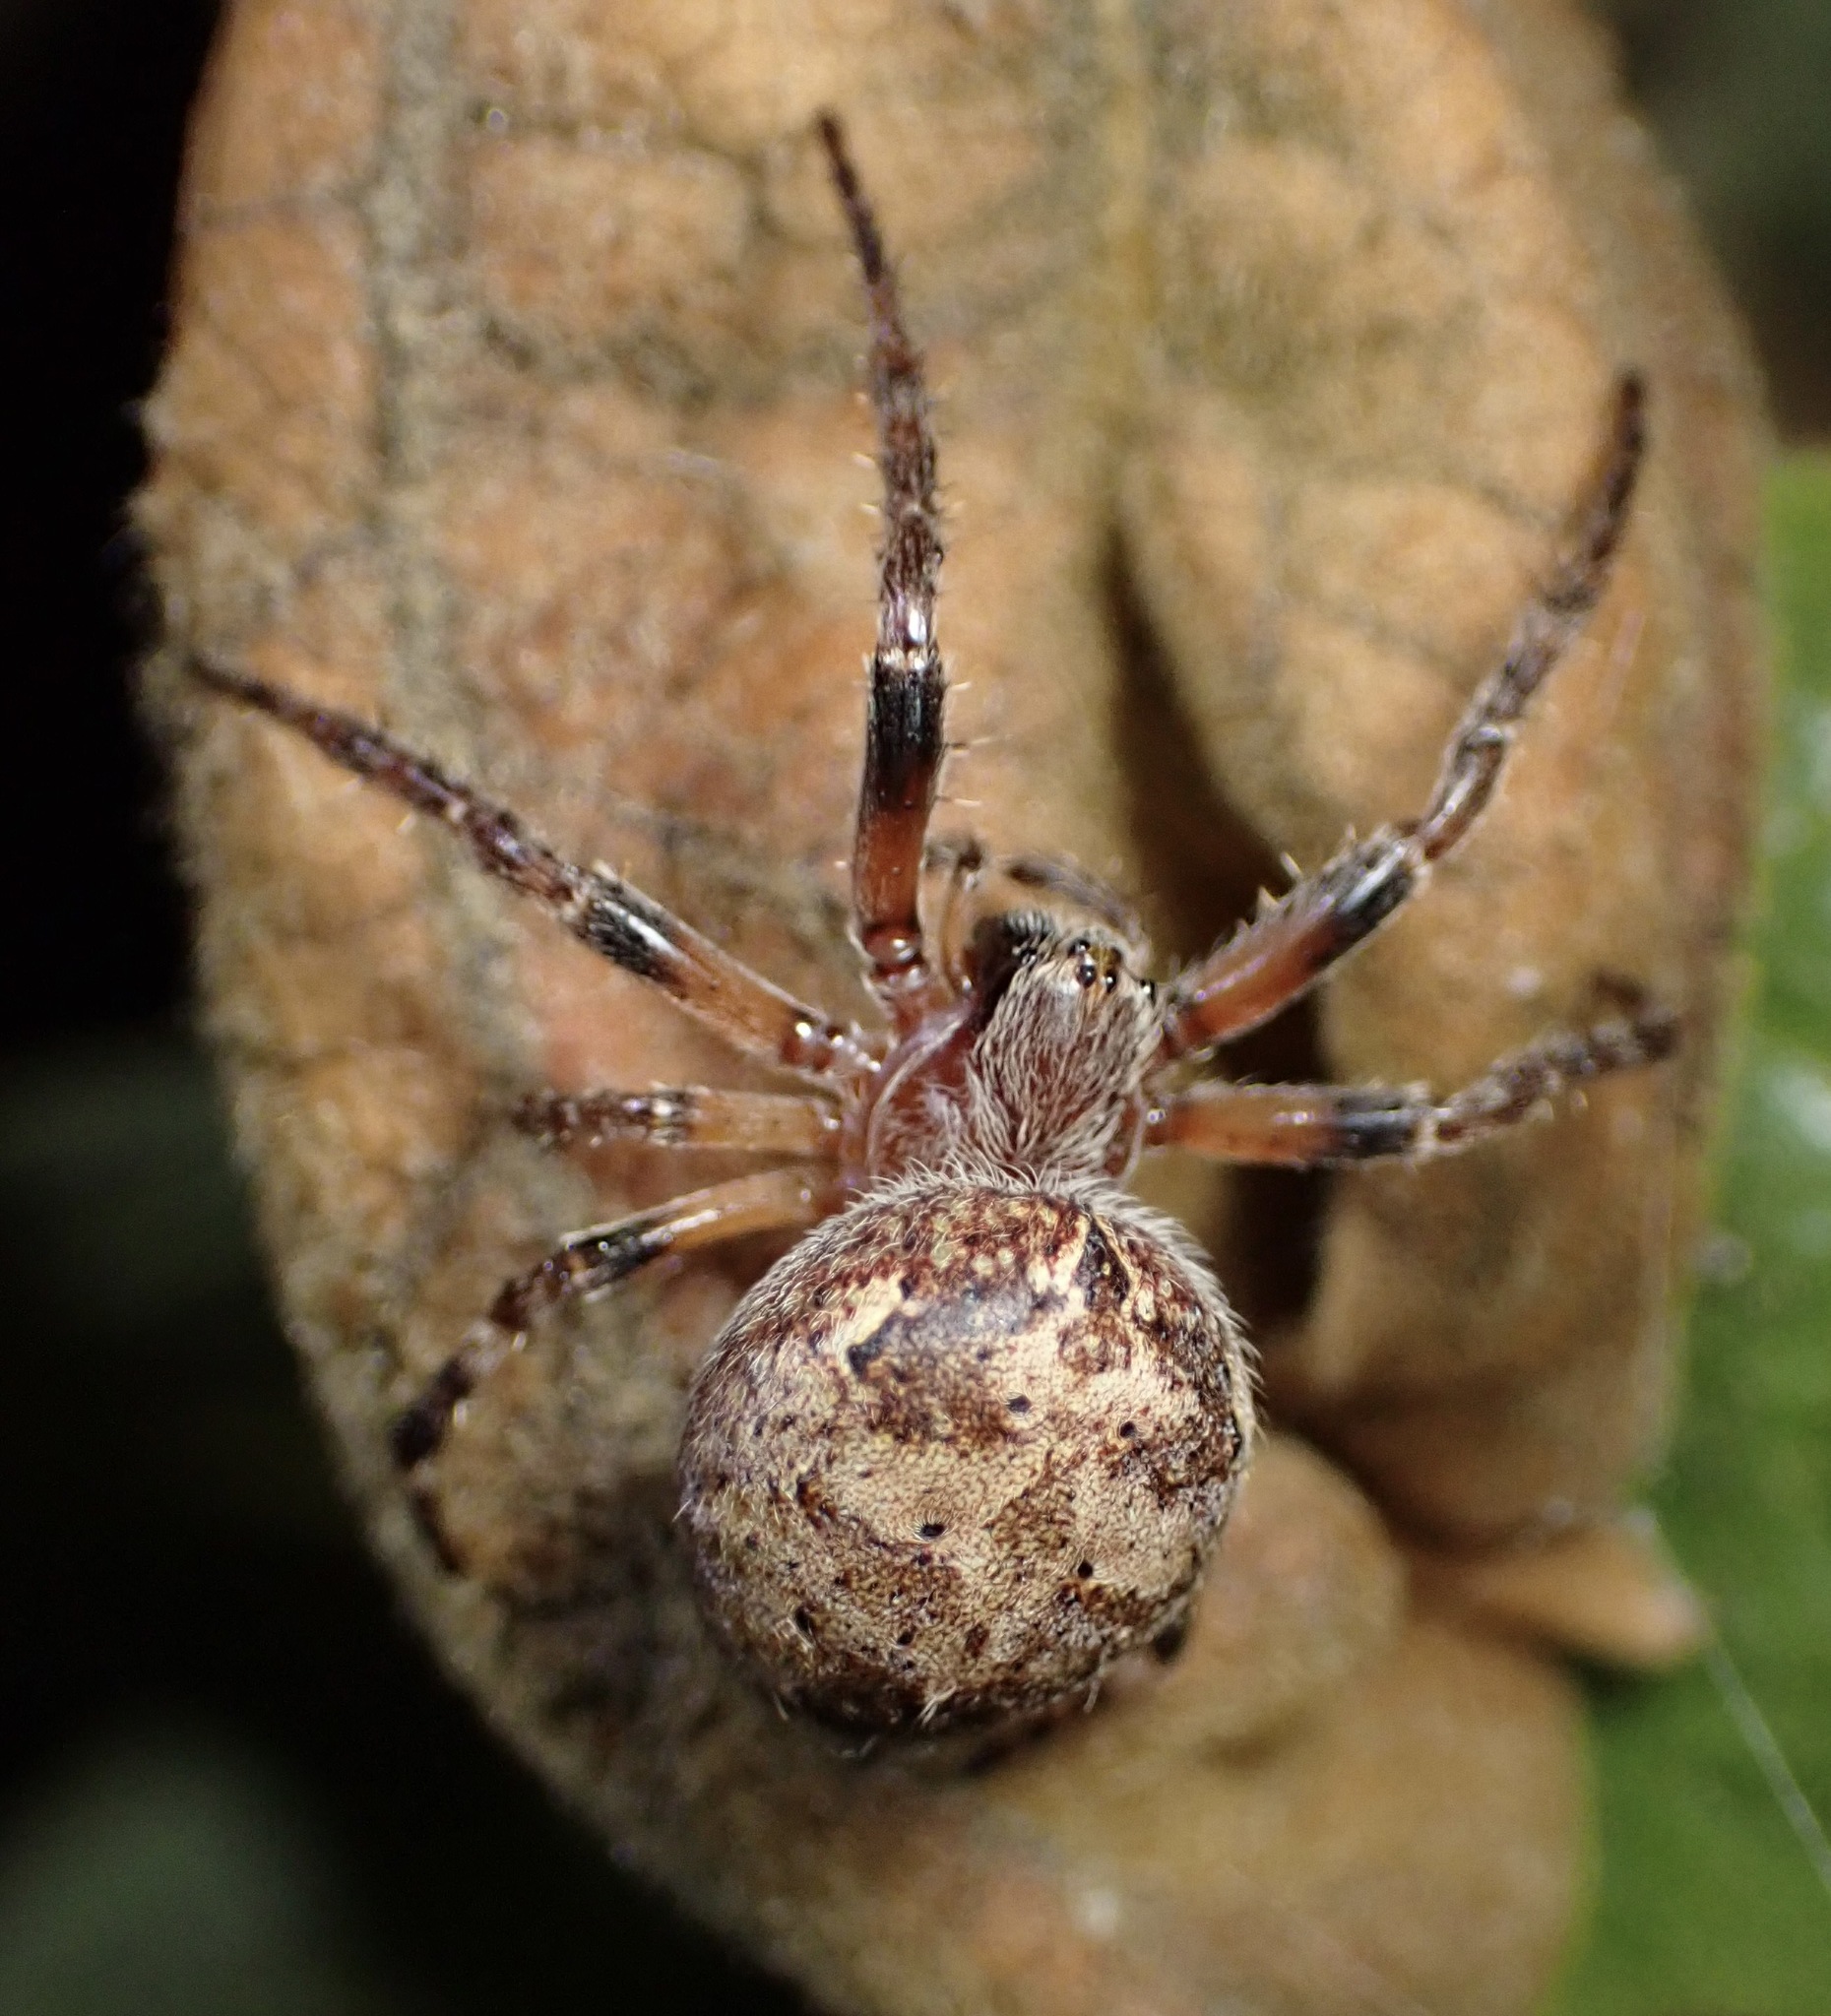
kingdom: Animalia
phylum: Arthropoda
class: Arachnida
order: Araneae
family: Araneidae
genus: Larinioides
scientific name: Larinioides patagiatus
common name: Ornamental orbweaver
